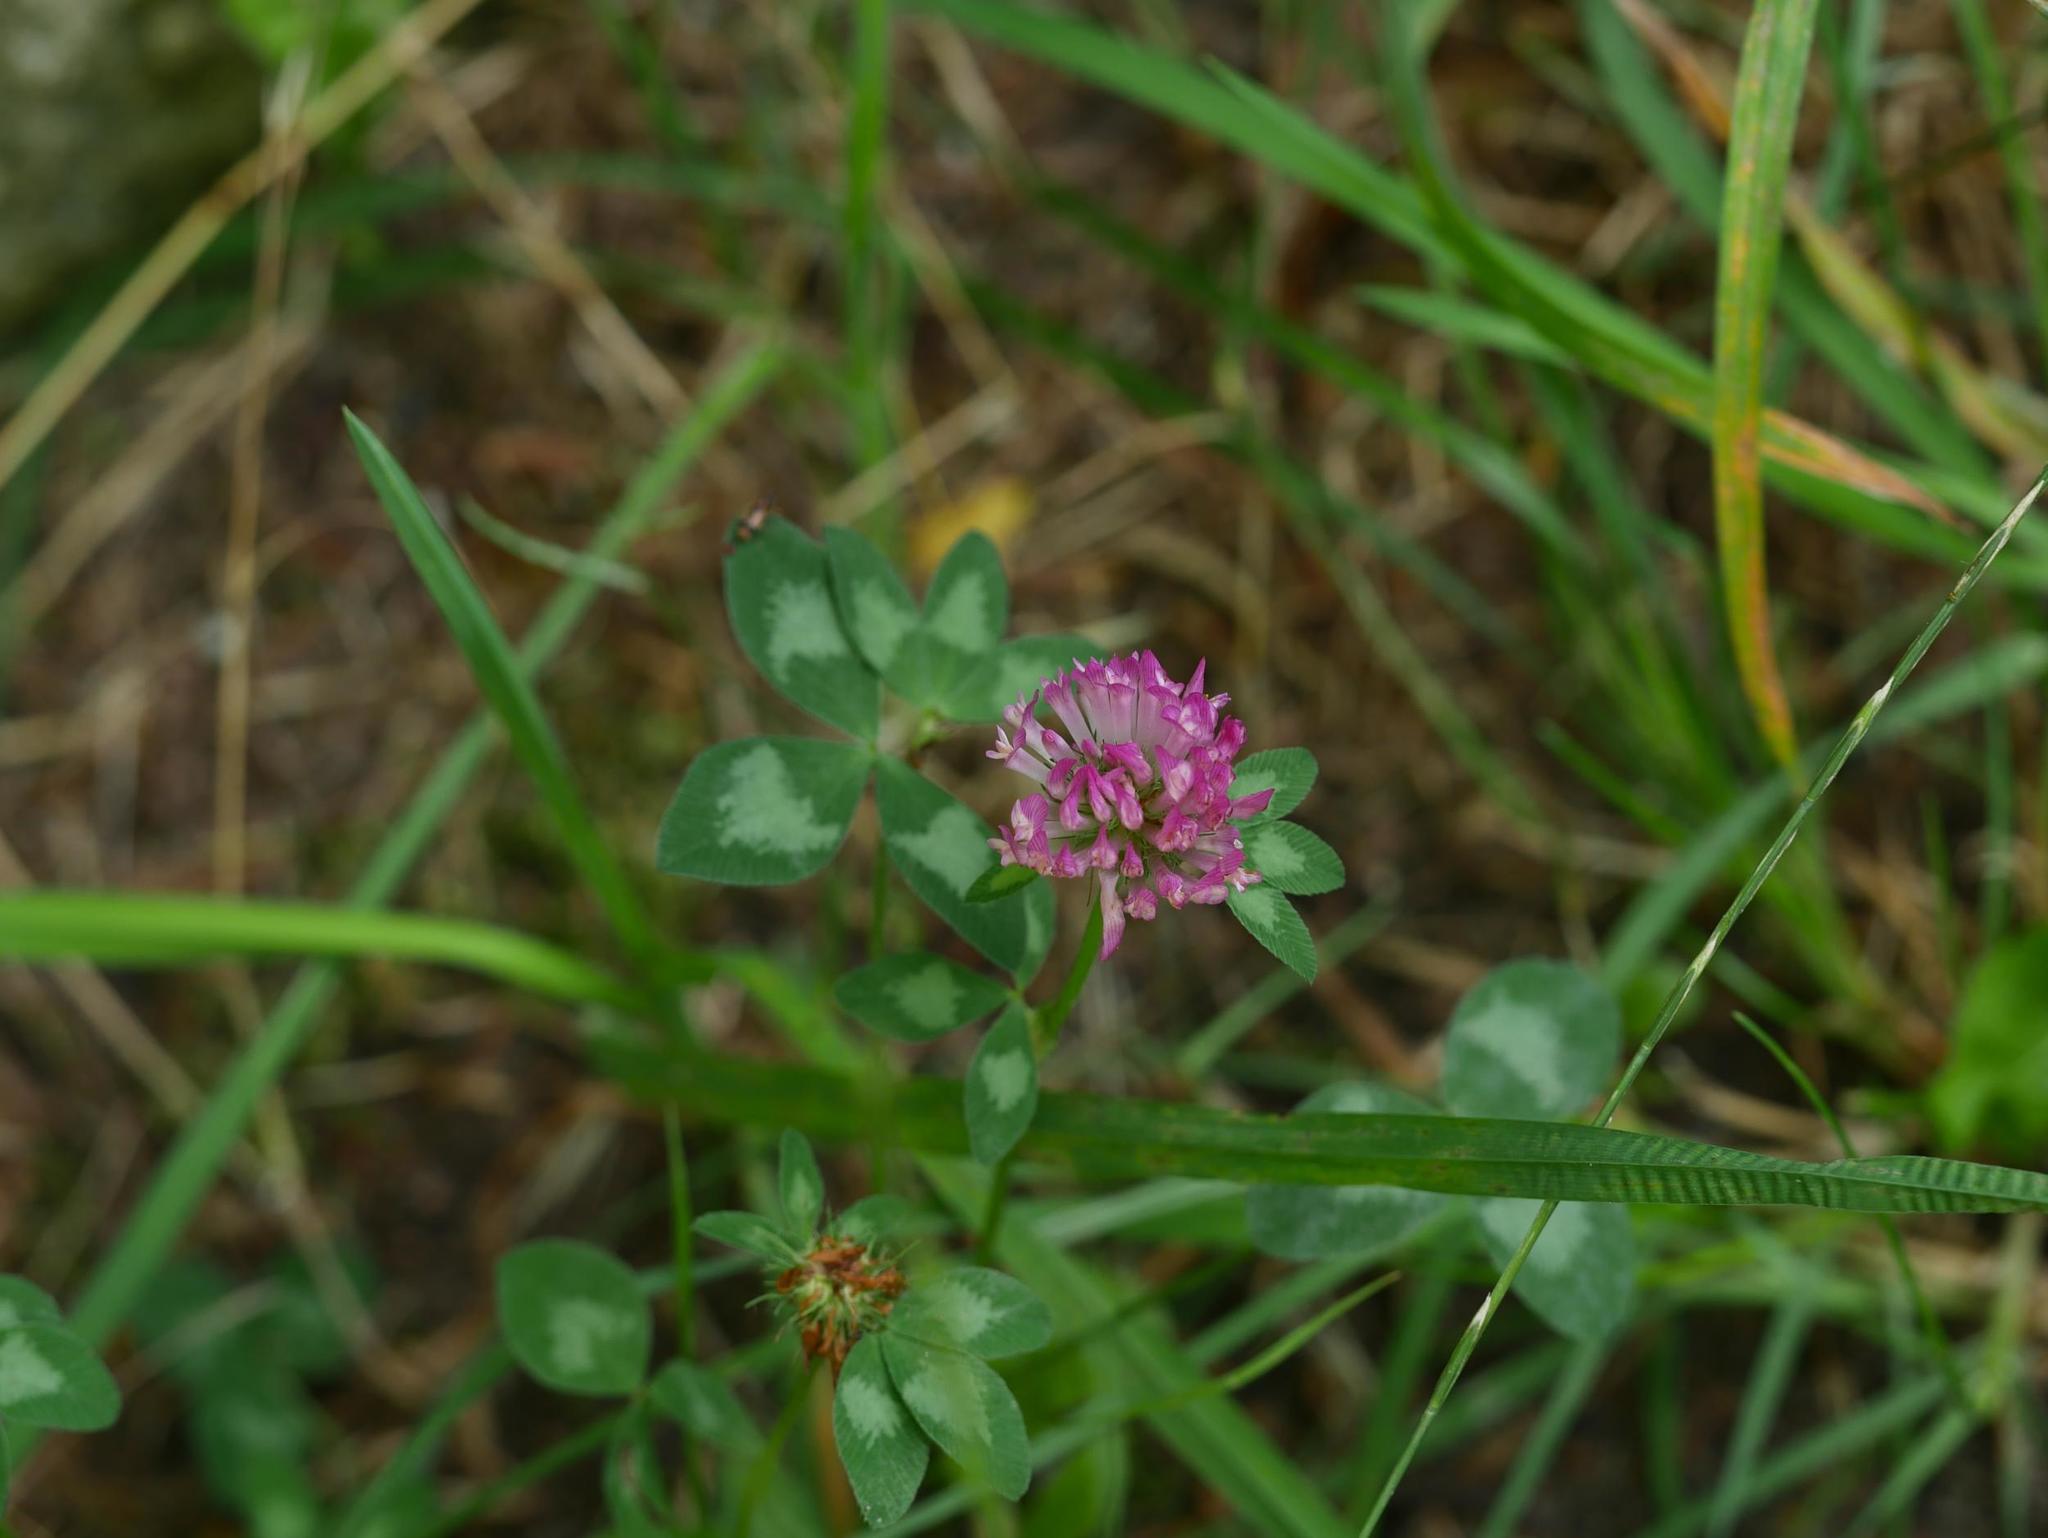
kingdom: Plantae
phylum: Tracheophyta
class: Magnoliopsida
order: Fabales
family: Fabaceae
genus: Trifolium
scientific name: Trifolium pratense
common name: Red clover
